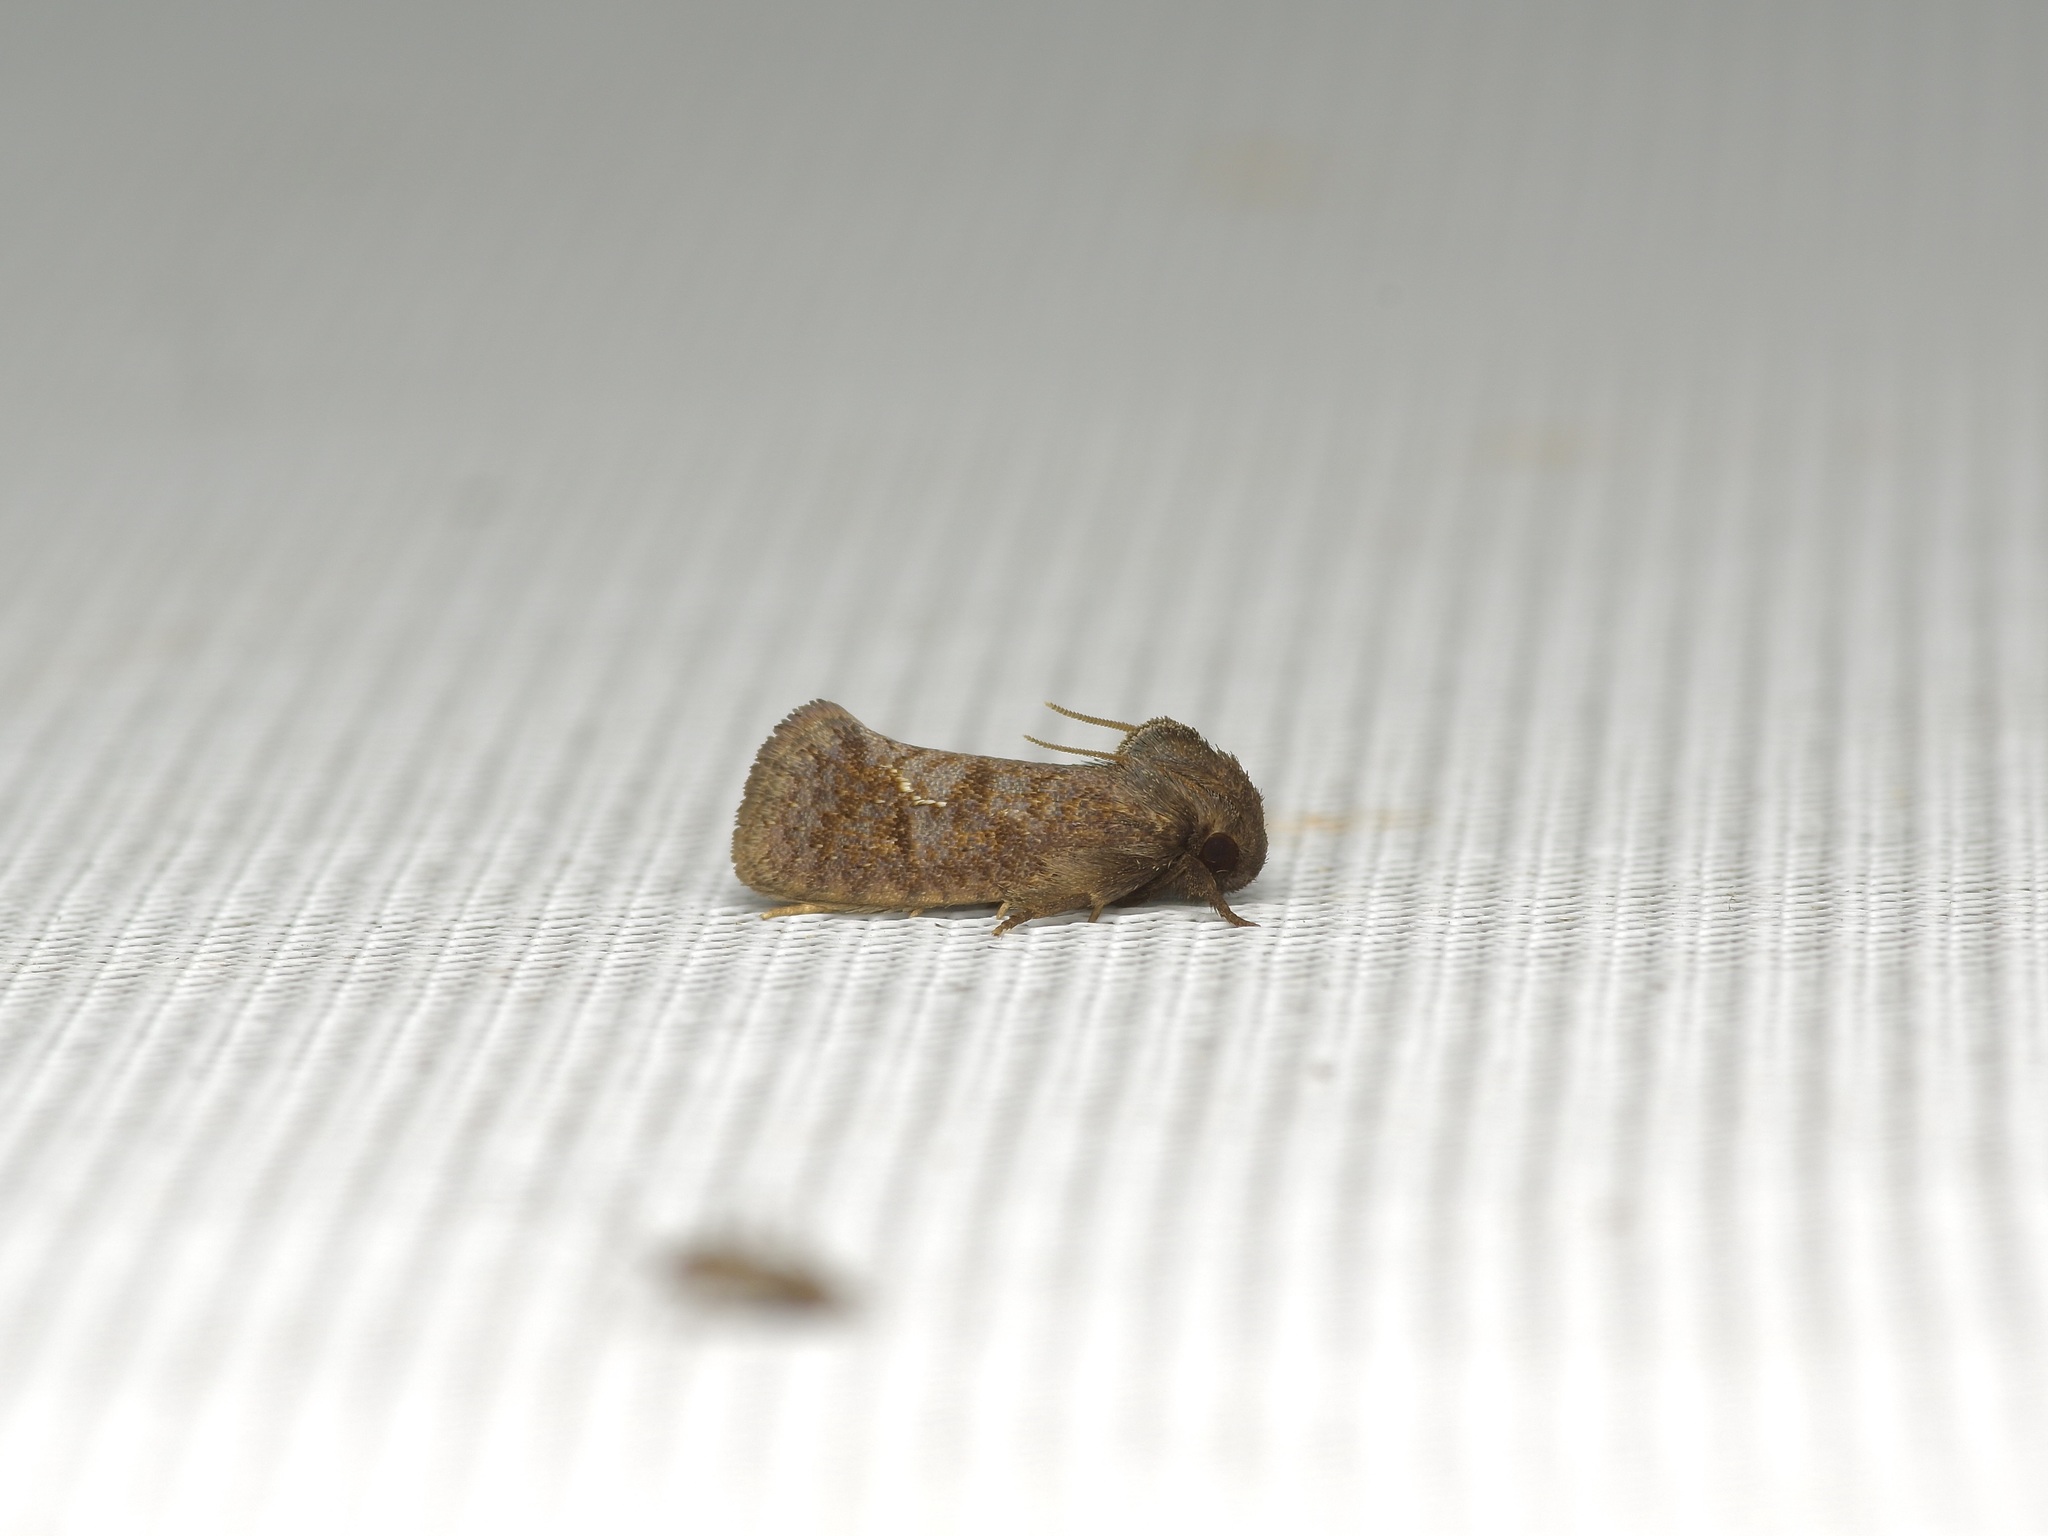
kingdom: Animalia
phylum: Arthropoda
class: Insecta
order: Lepidoptera
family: Tineidae
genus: Acrolophus
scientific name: Acrolophus texanella
